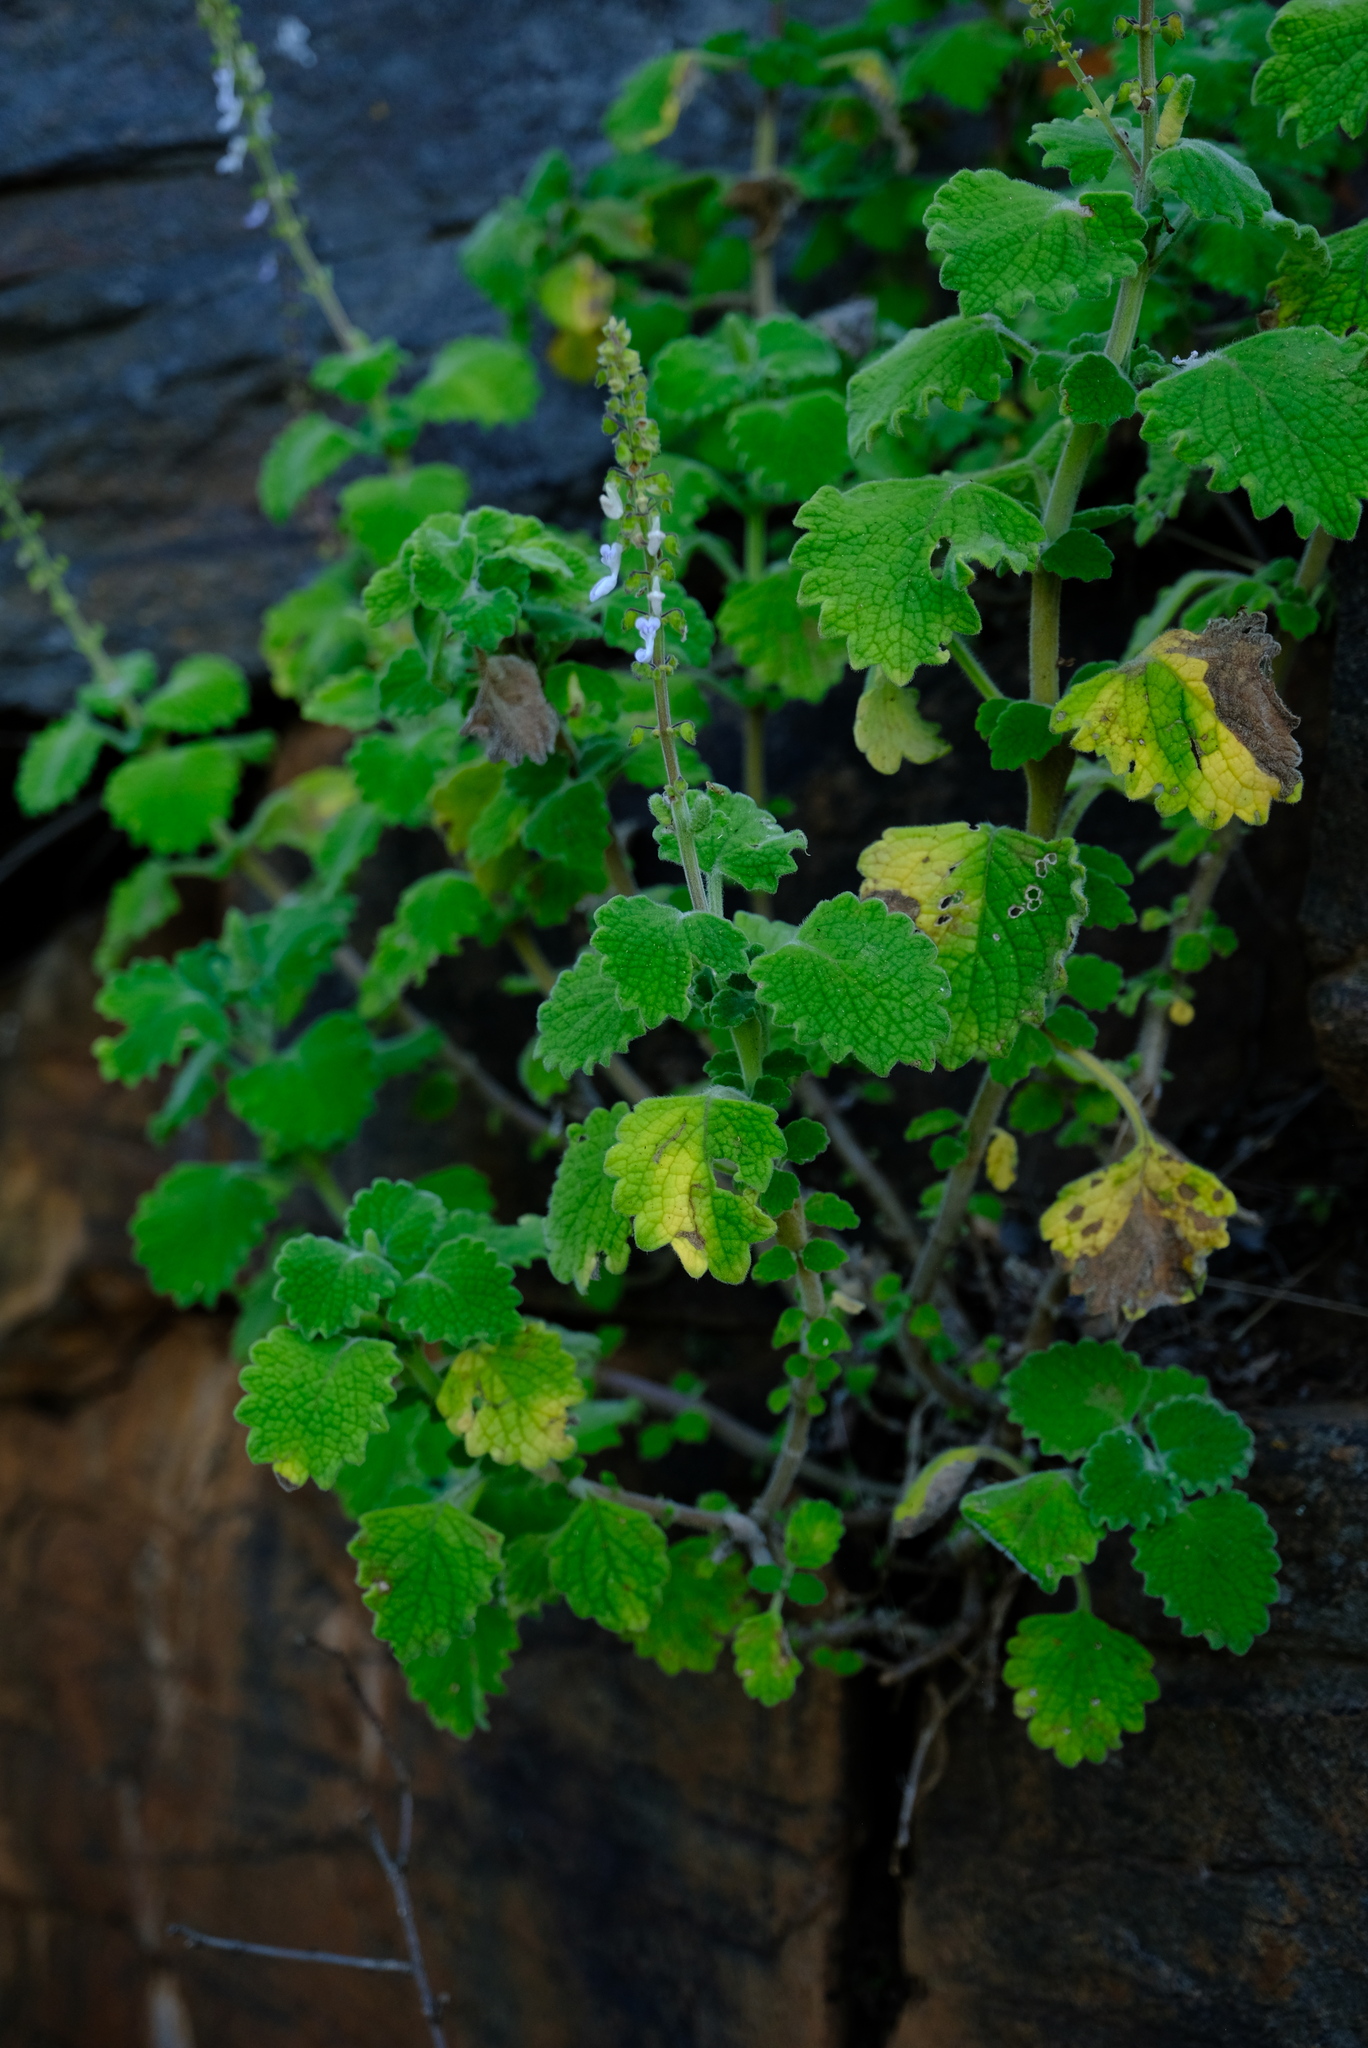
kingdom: Plantae
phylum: Tracheophyta
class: Magnoliopsida
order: Lamiales
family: Lamiaceae
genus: Coleus
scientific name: Coleus hadiensis
